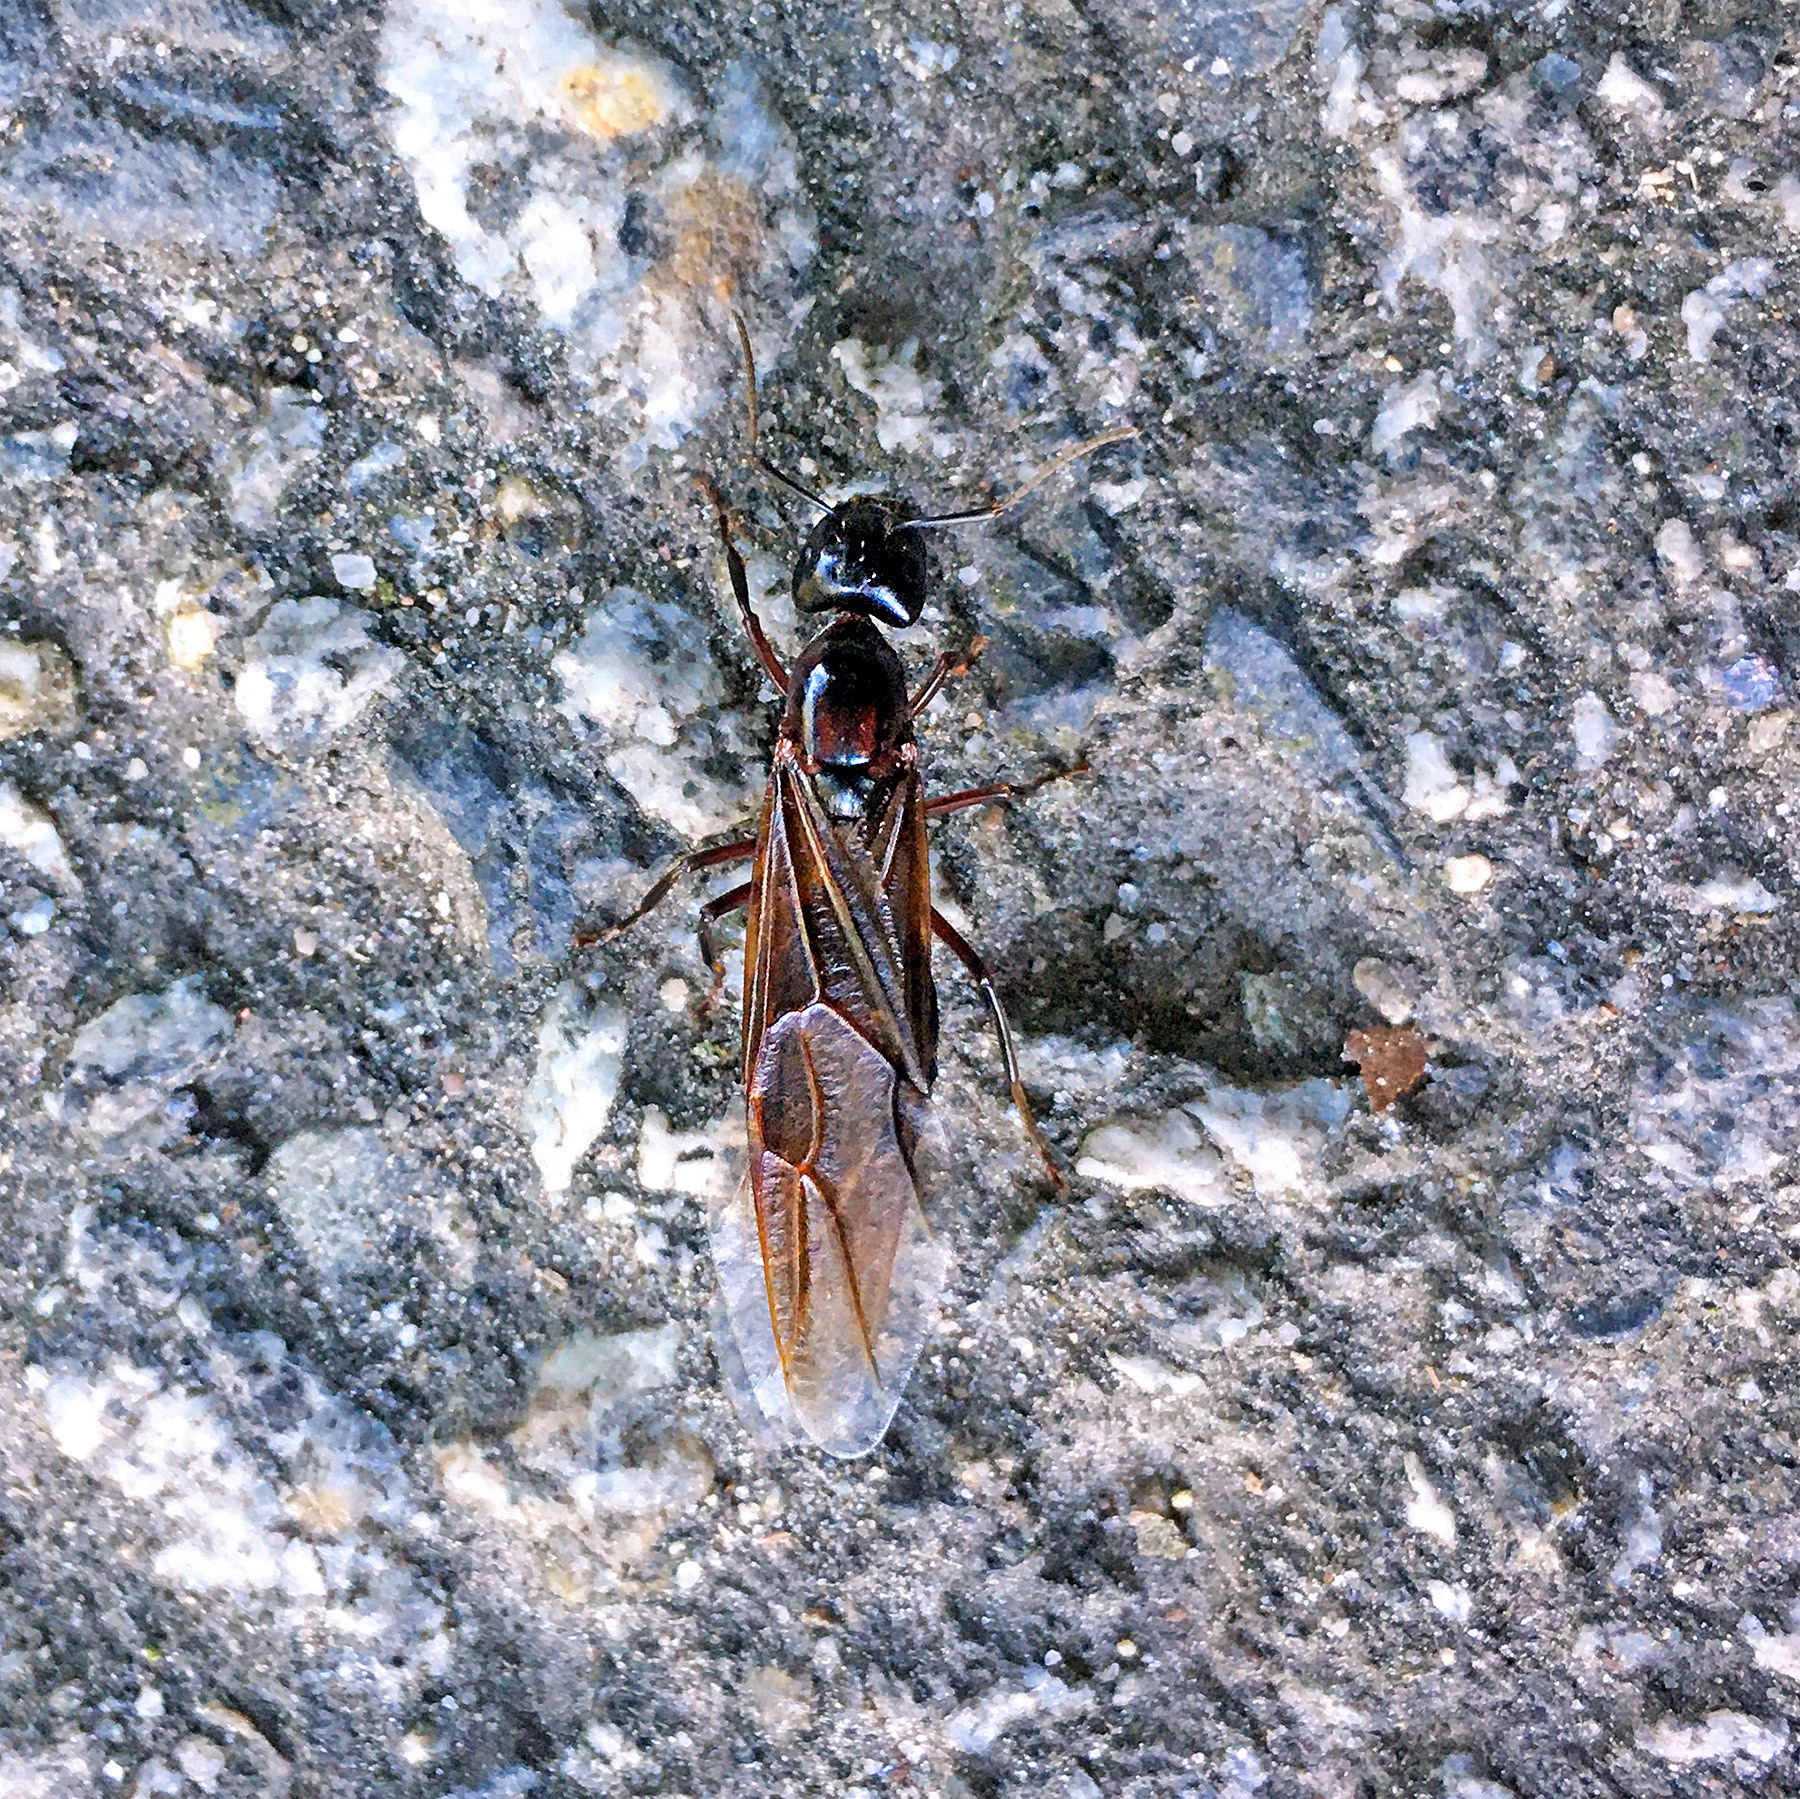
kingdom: Animalia
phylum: Arthropoda
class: Insecta
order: Hymenoptera
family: Formicidae
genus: Camponotus
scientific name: Camponotus ligniperdus
